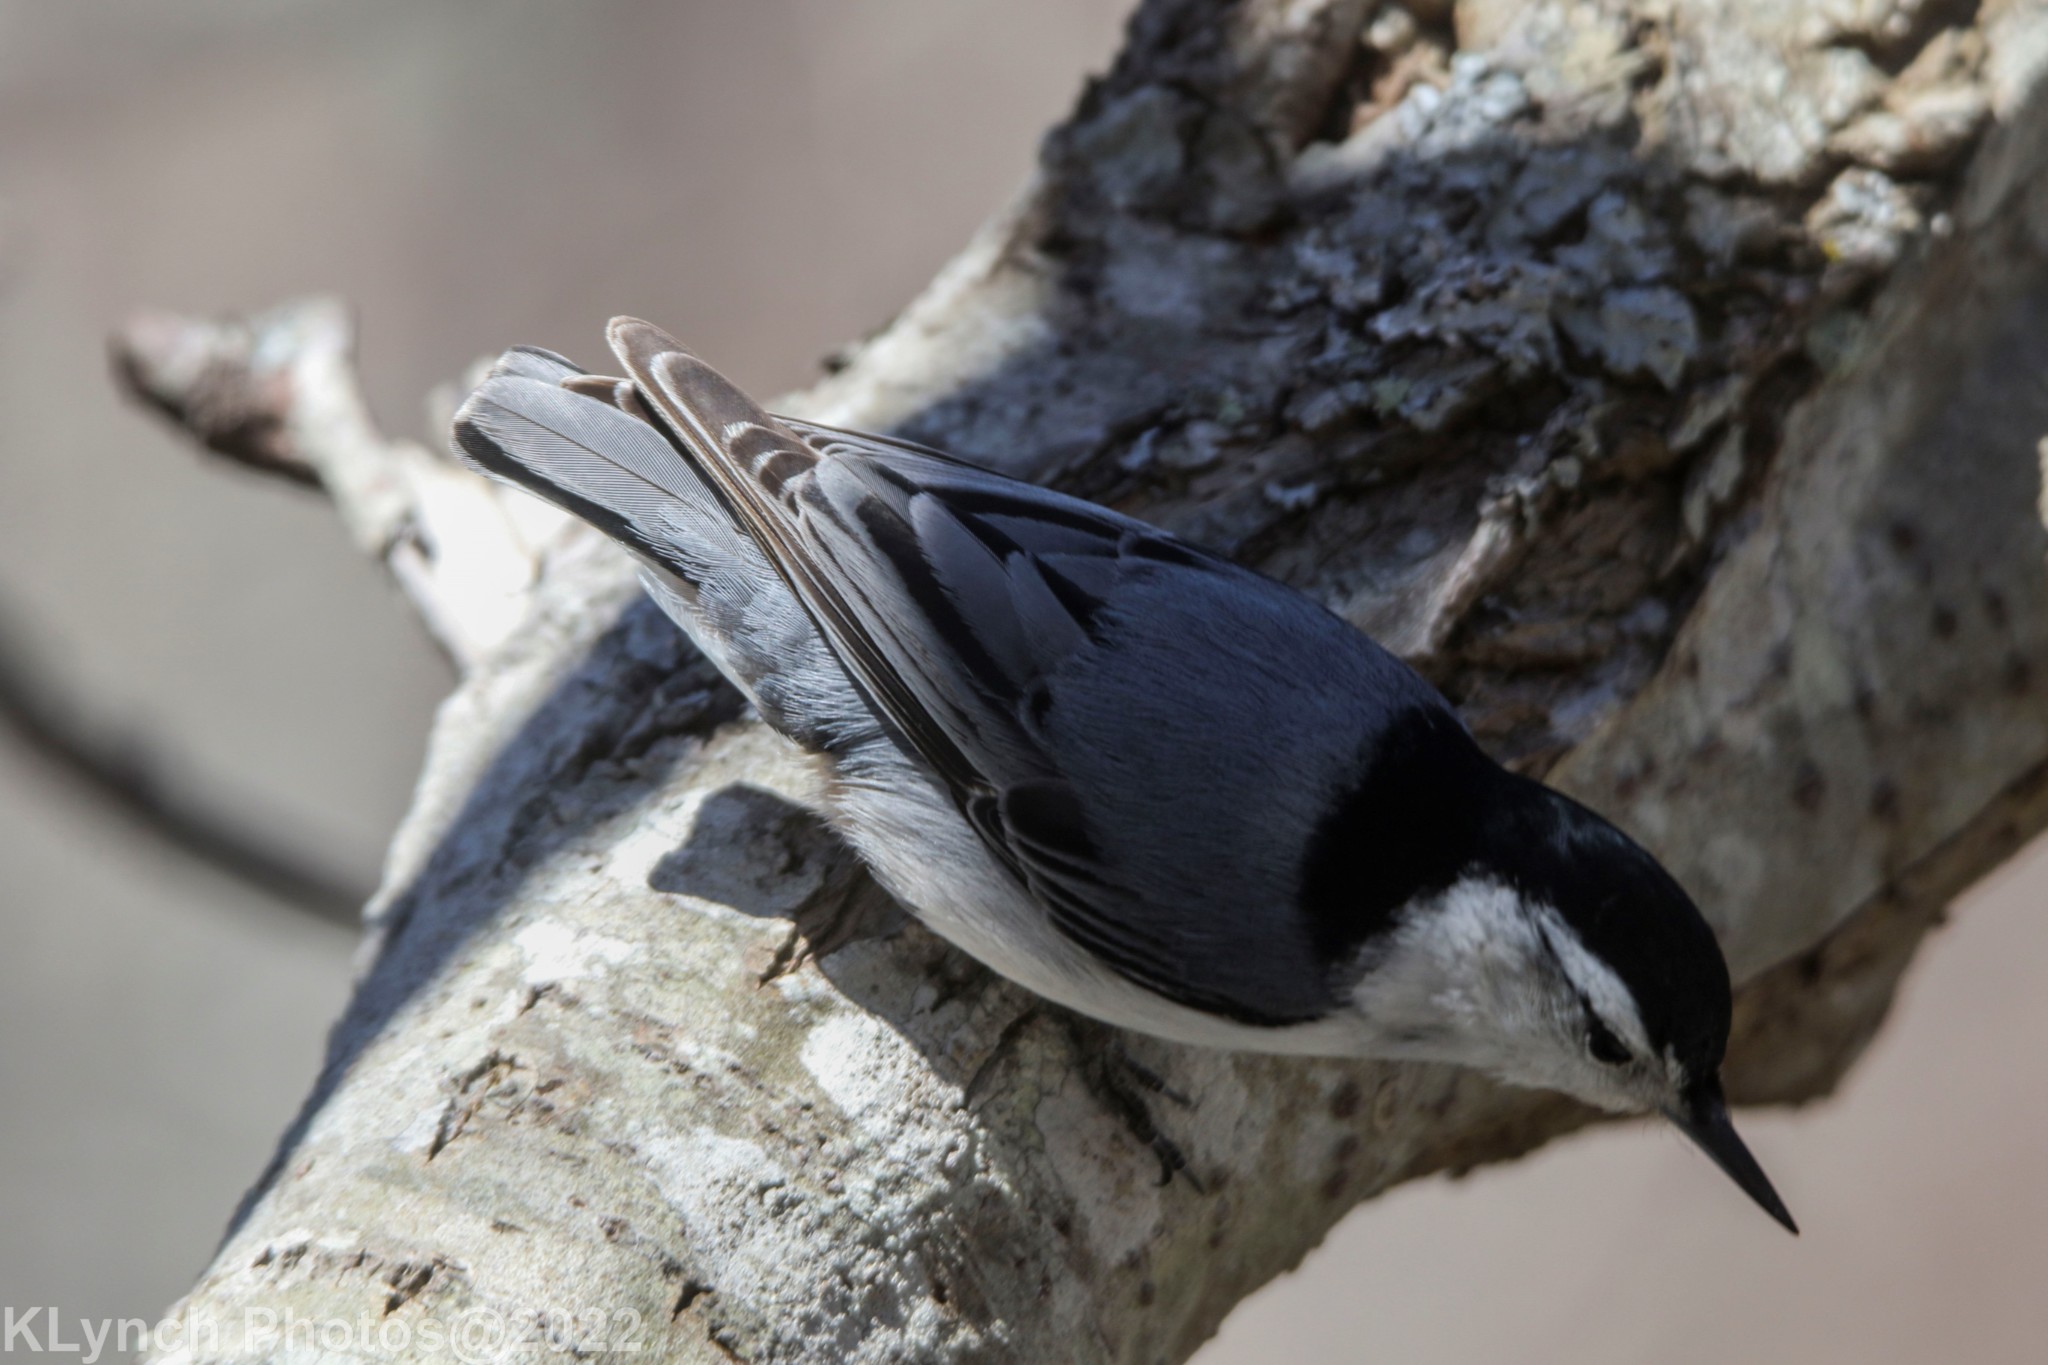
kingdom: Animalia
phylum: Chordata
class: Aves
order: Passeriformes
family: Sittidae
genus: Sitta
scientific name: Sitta carolinensis
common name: White-breasted nuthatch
